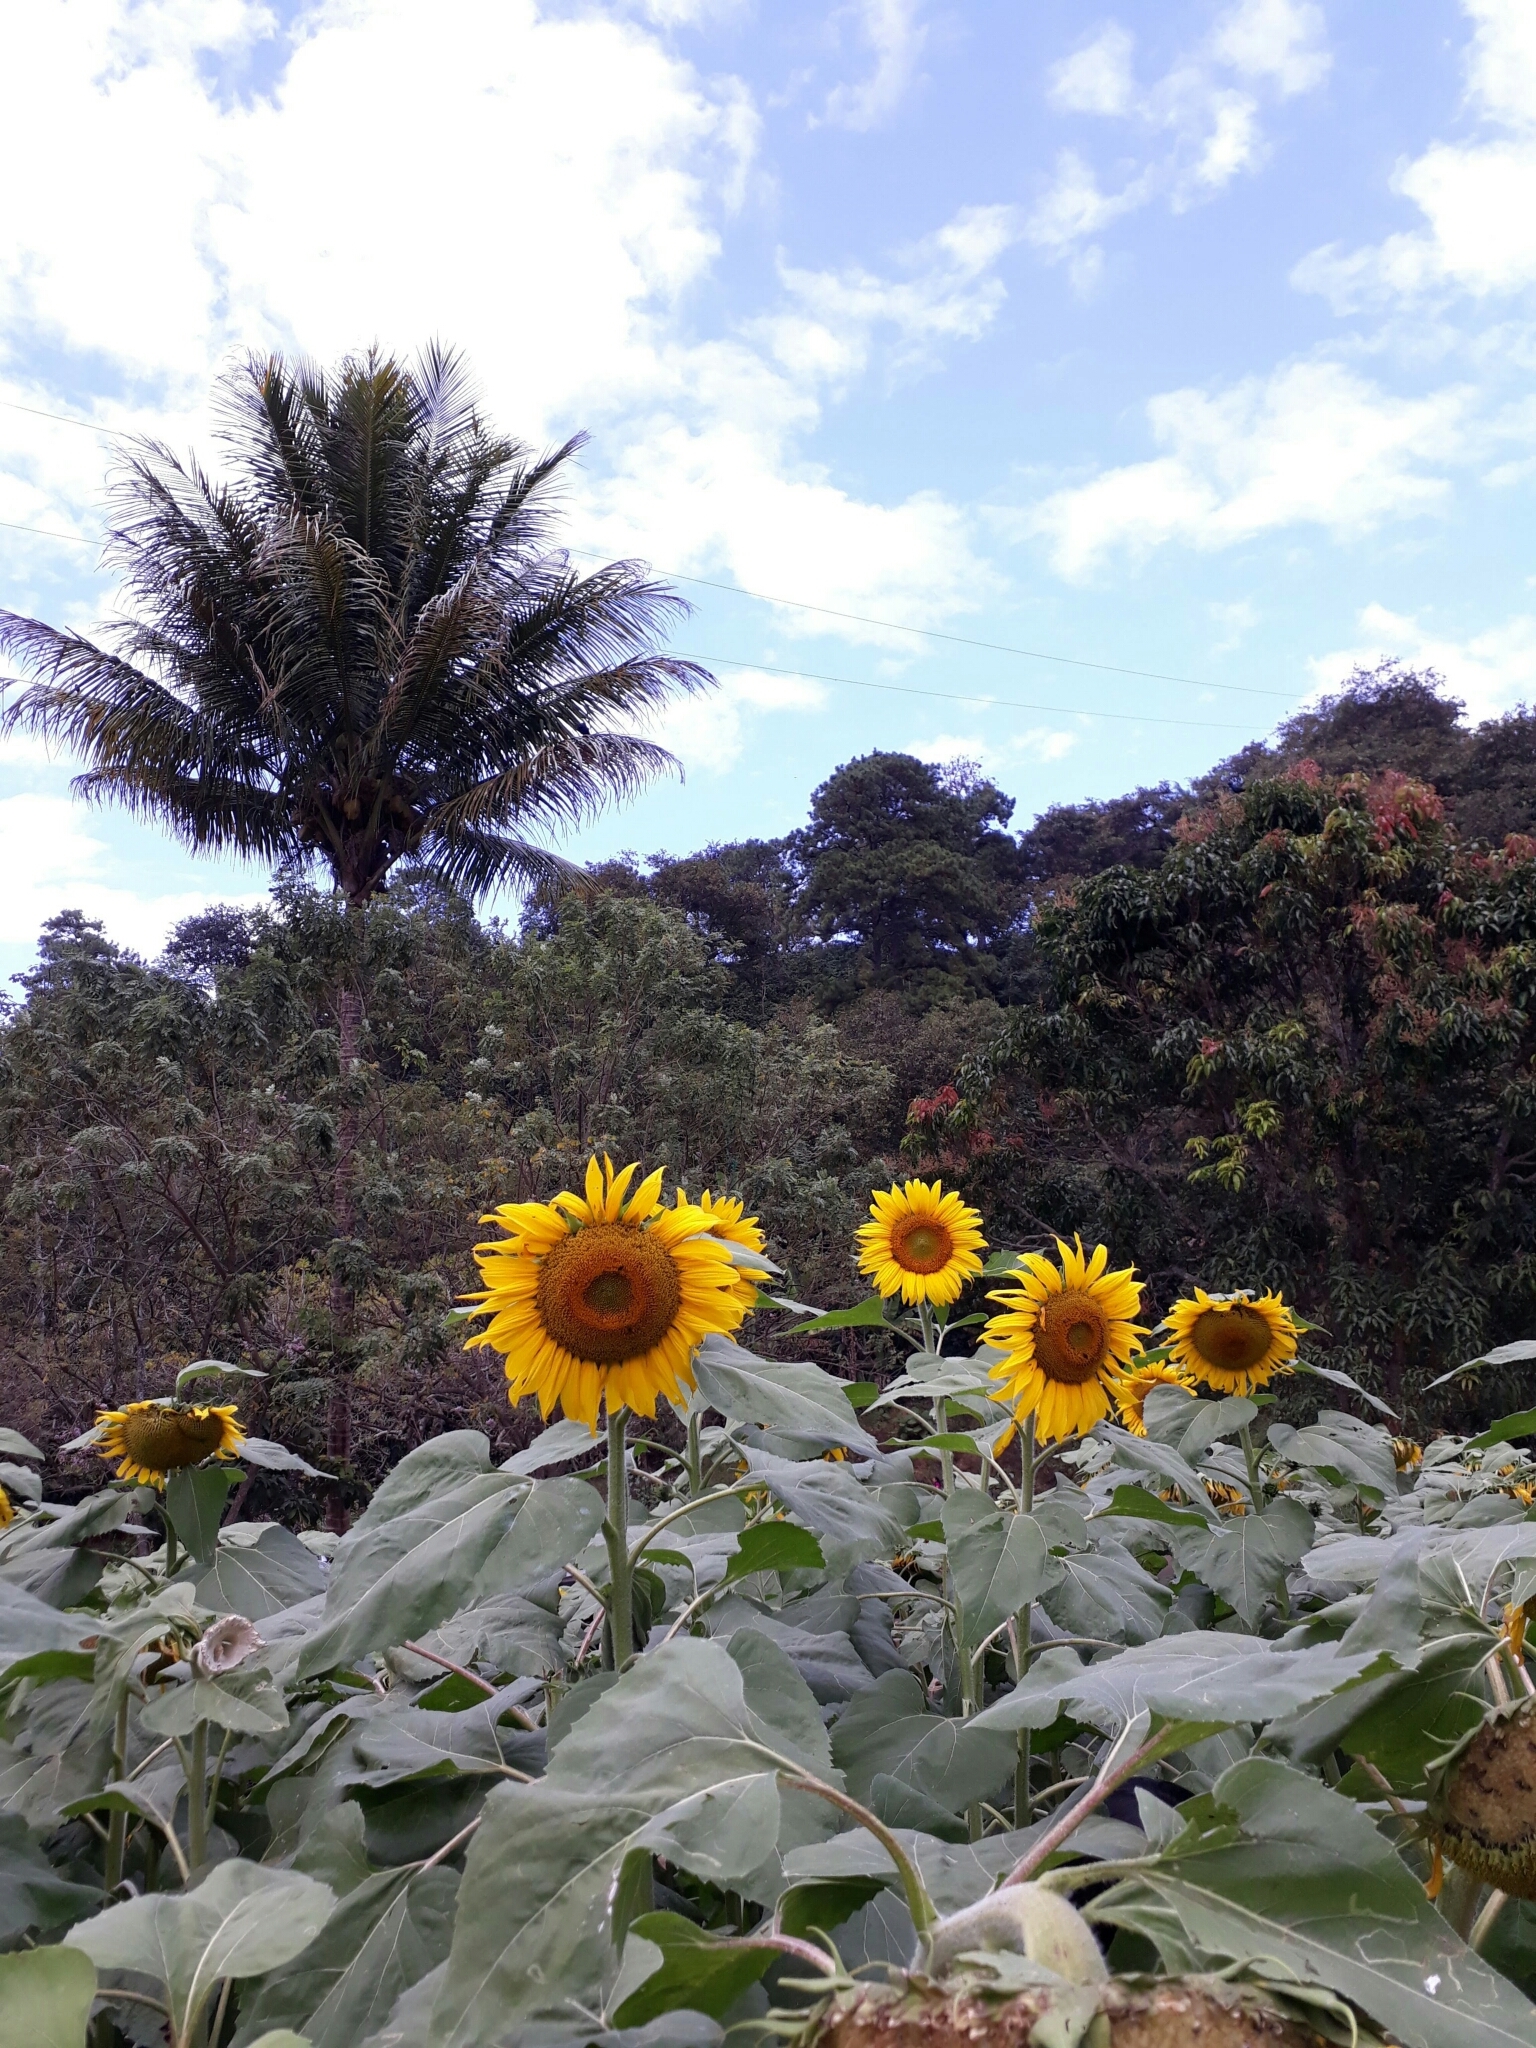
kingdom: Plantae
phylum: Tracheophyta
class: Magnoliopsida
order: Asterales
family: Asteraceae
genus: Helianthus
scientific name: Helianthus annuus
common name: Sunflower
